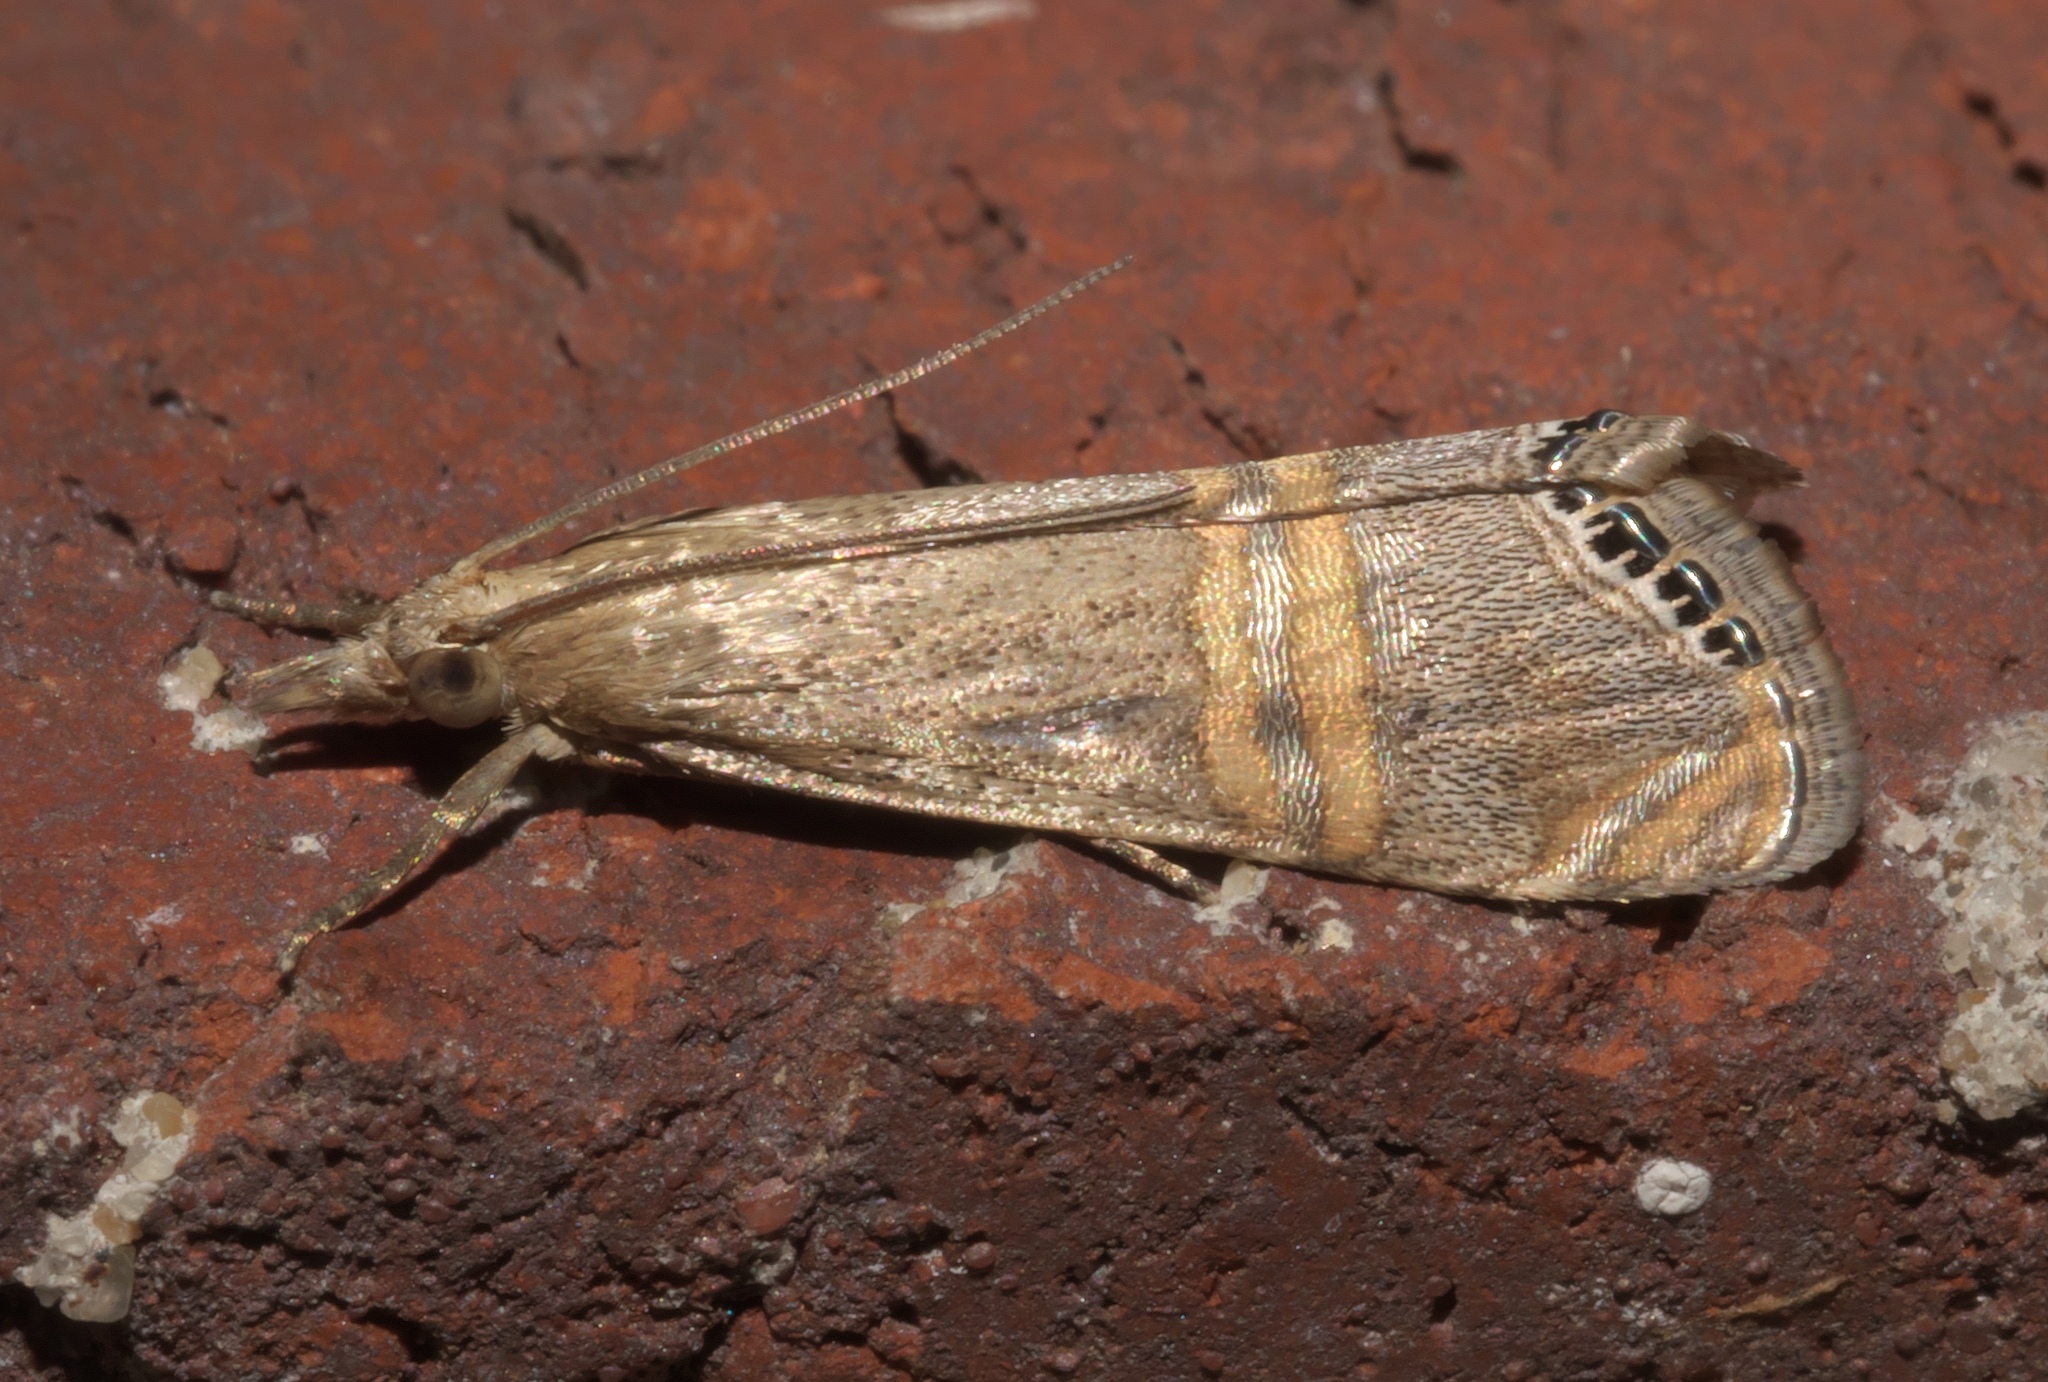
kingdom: Animalia
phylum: Arthropoda
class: Insecta
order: Lepidoptera
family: Crambidae
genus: Euchromius
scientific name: Euchromius ocellea
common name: Necklace veneer moth
